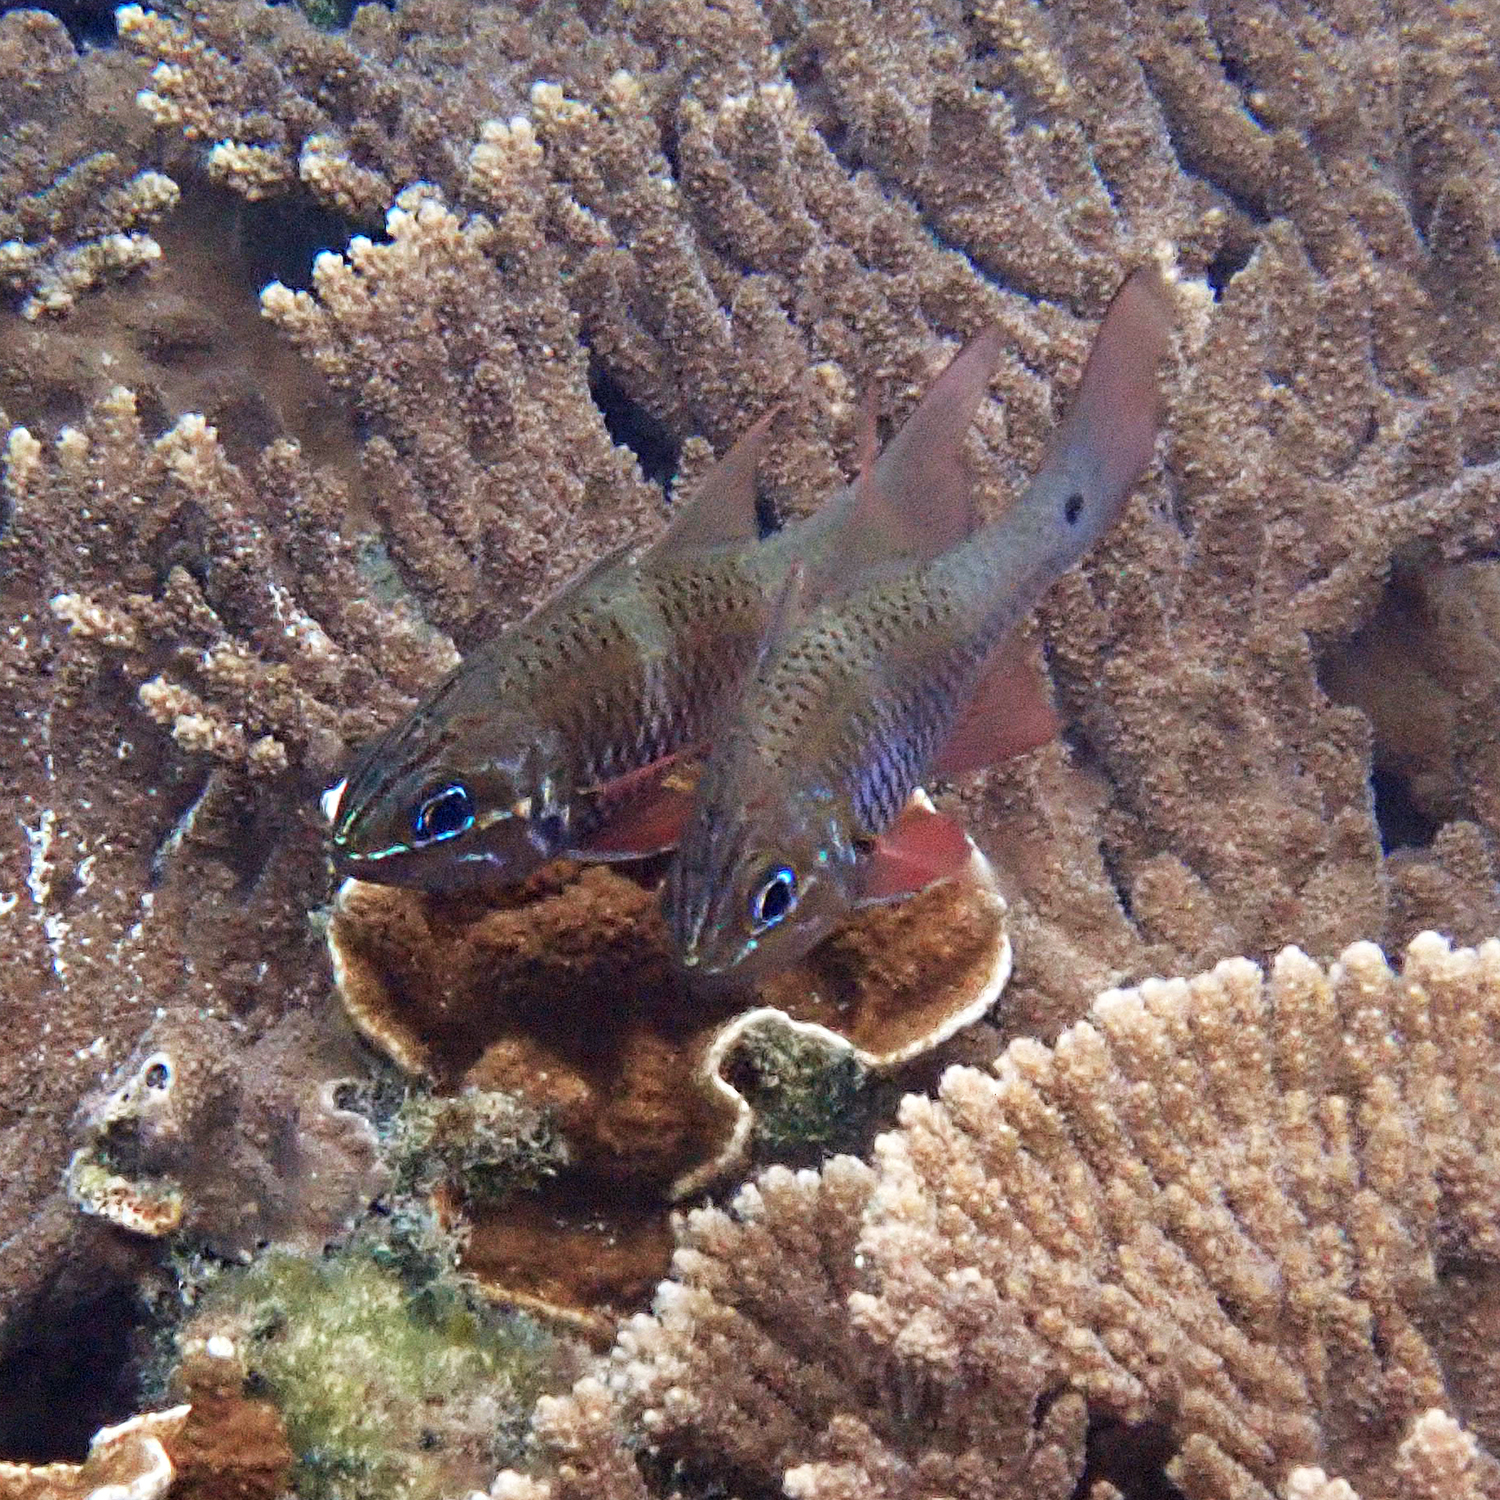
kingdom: Animalia
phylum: Chordata
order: Perciformes
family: Apogonidae
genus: Ostorhinchus
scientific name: Ostorhinchus norfolcensis
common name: Norfolk cardinalfish
